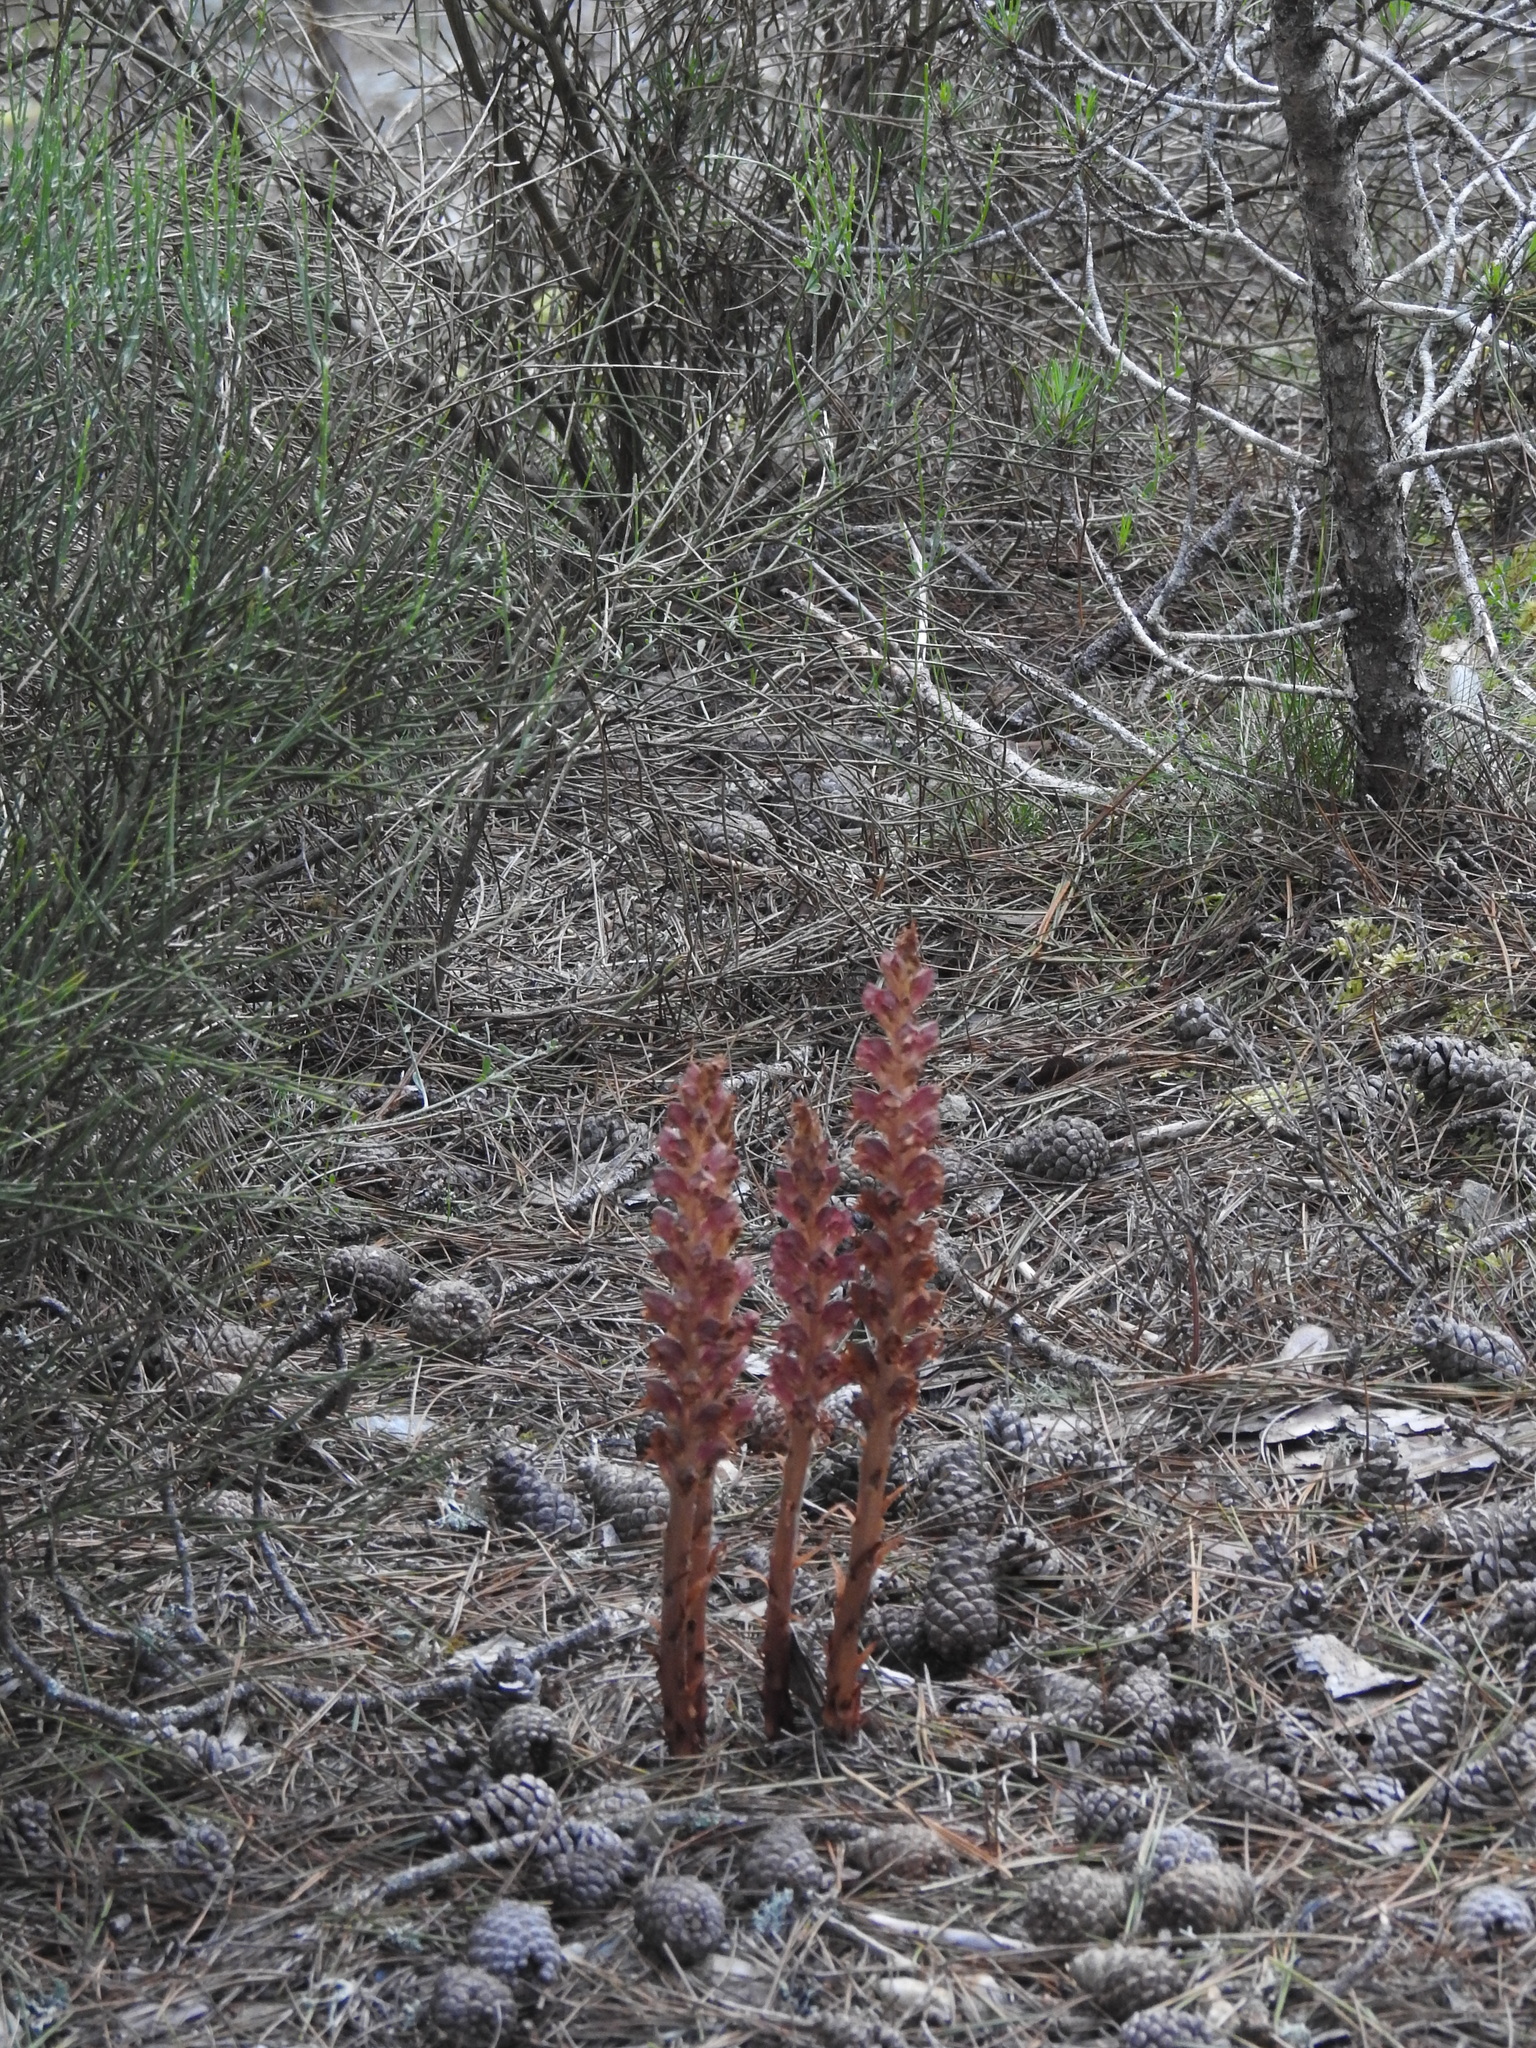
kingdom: Plantae
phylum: Tracheophyta
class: Magnoliopsida
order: Lamiales
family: Orobanchaceae
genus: Orobanche
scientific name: Orobanche rapum-genistae
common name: Greater broomrape
